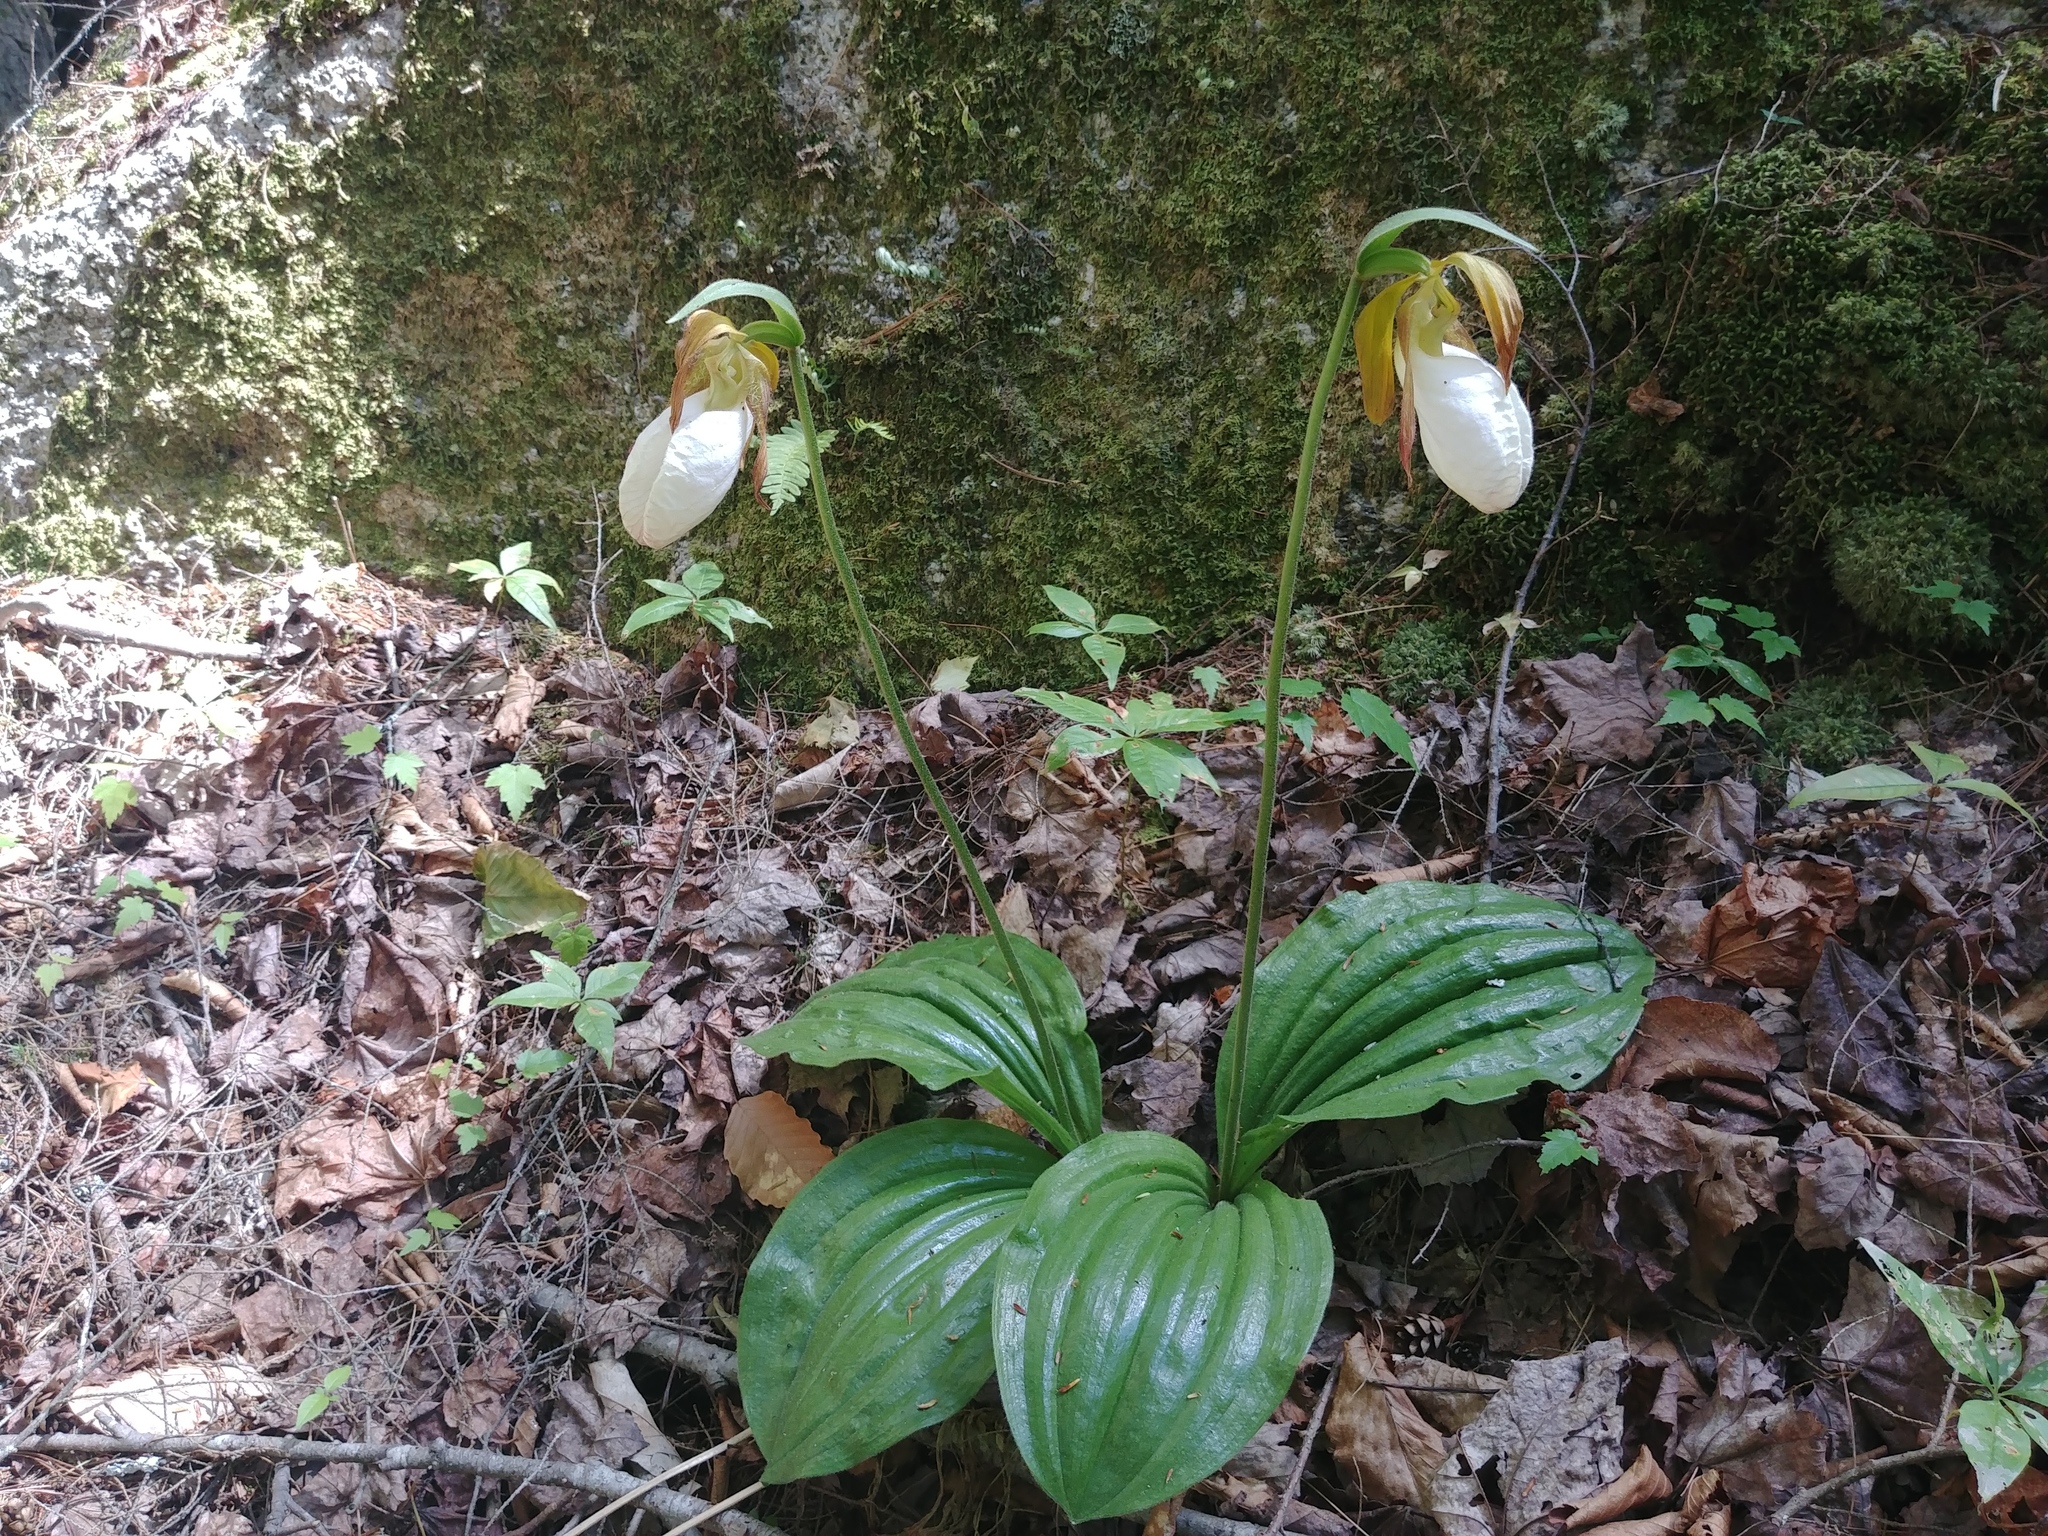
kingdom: Plantae
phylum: Tracheophyta
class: Liliopsida
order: Asparagales
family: Orchidaceae
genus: Cypripedium
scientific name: Cypripedium acaule
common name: Pink lady's-slipper
